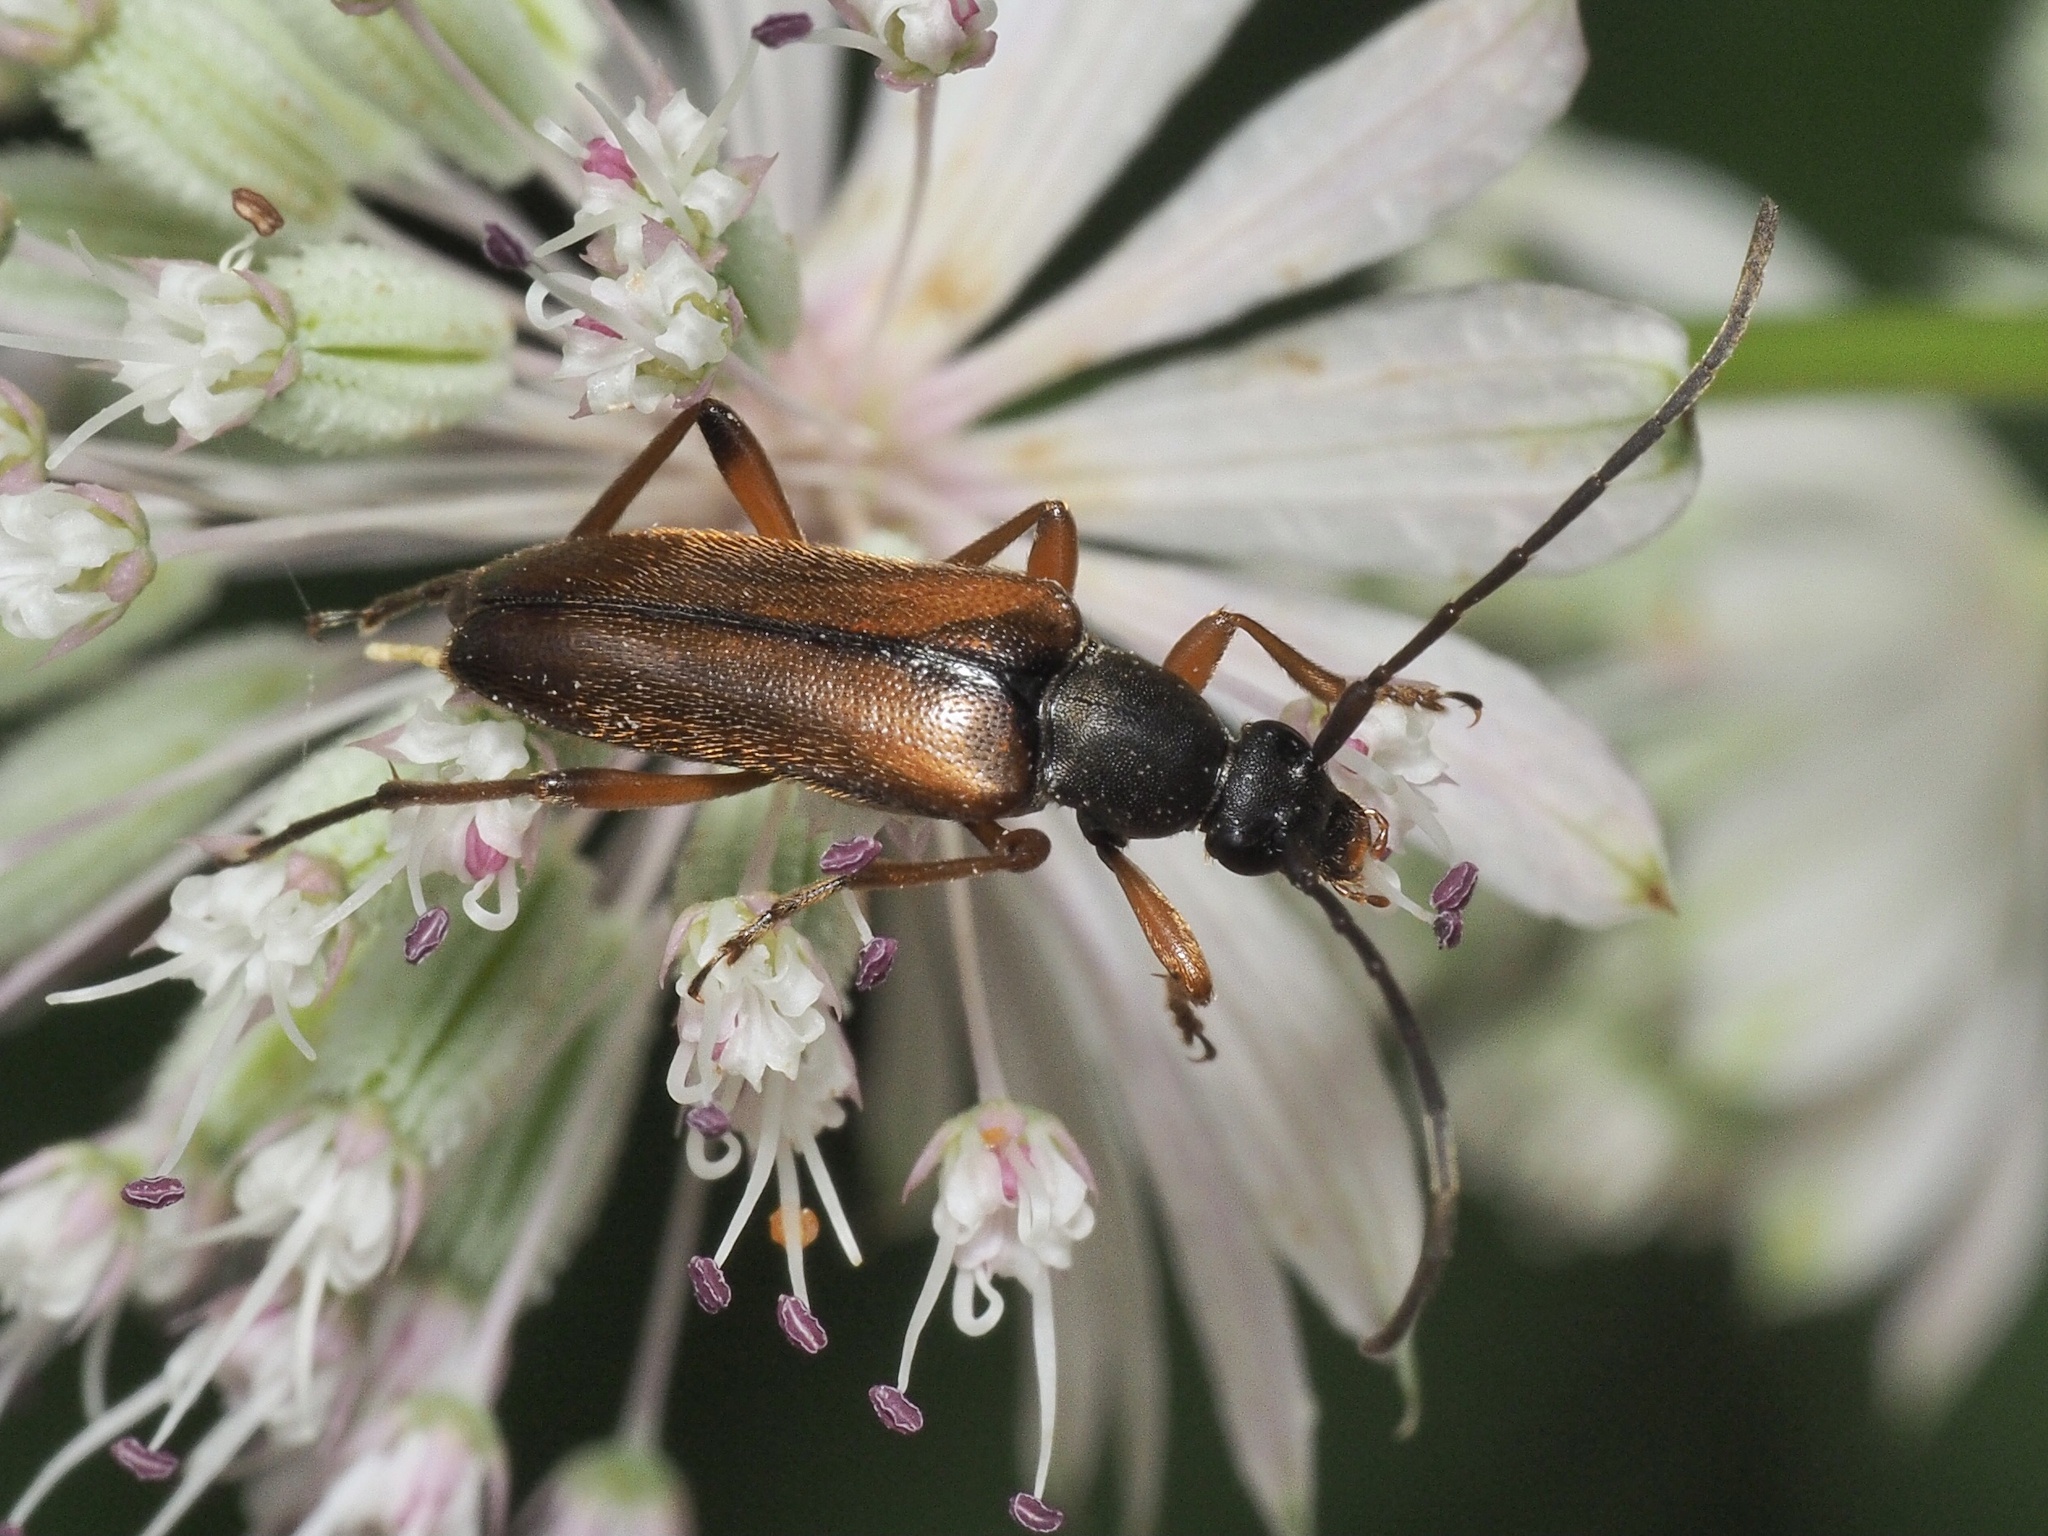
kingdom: Animalia
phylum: Arthropoda
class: Insecta
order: Coleoptera
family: Cerambycidae
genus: Alosterna
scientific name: Alosterna tabacicolor
